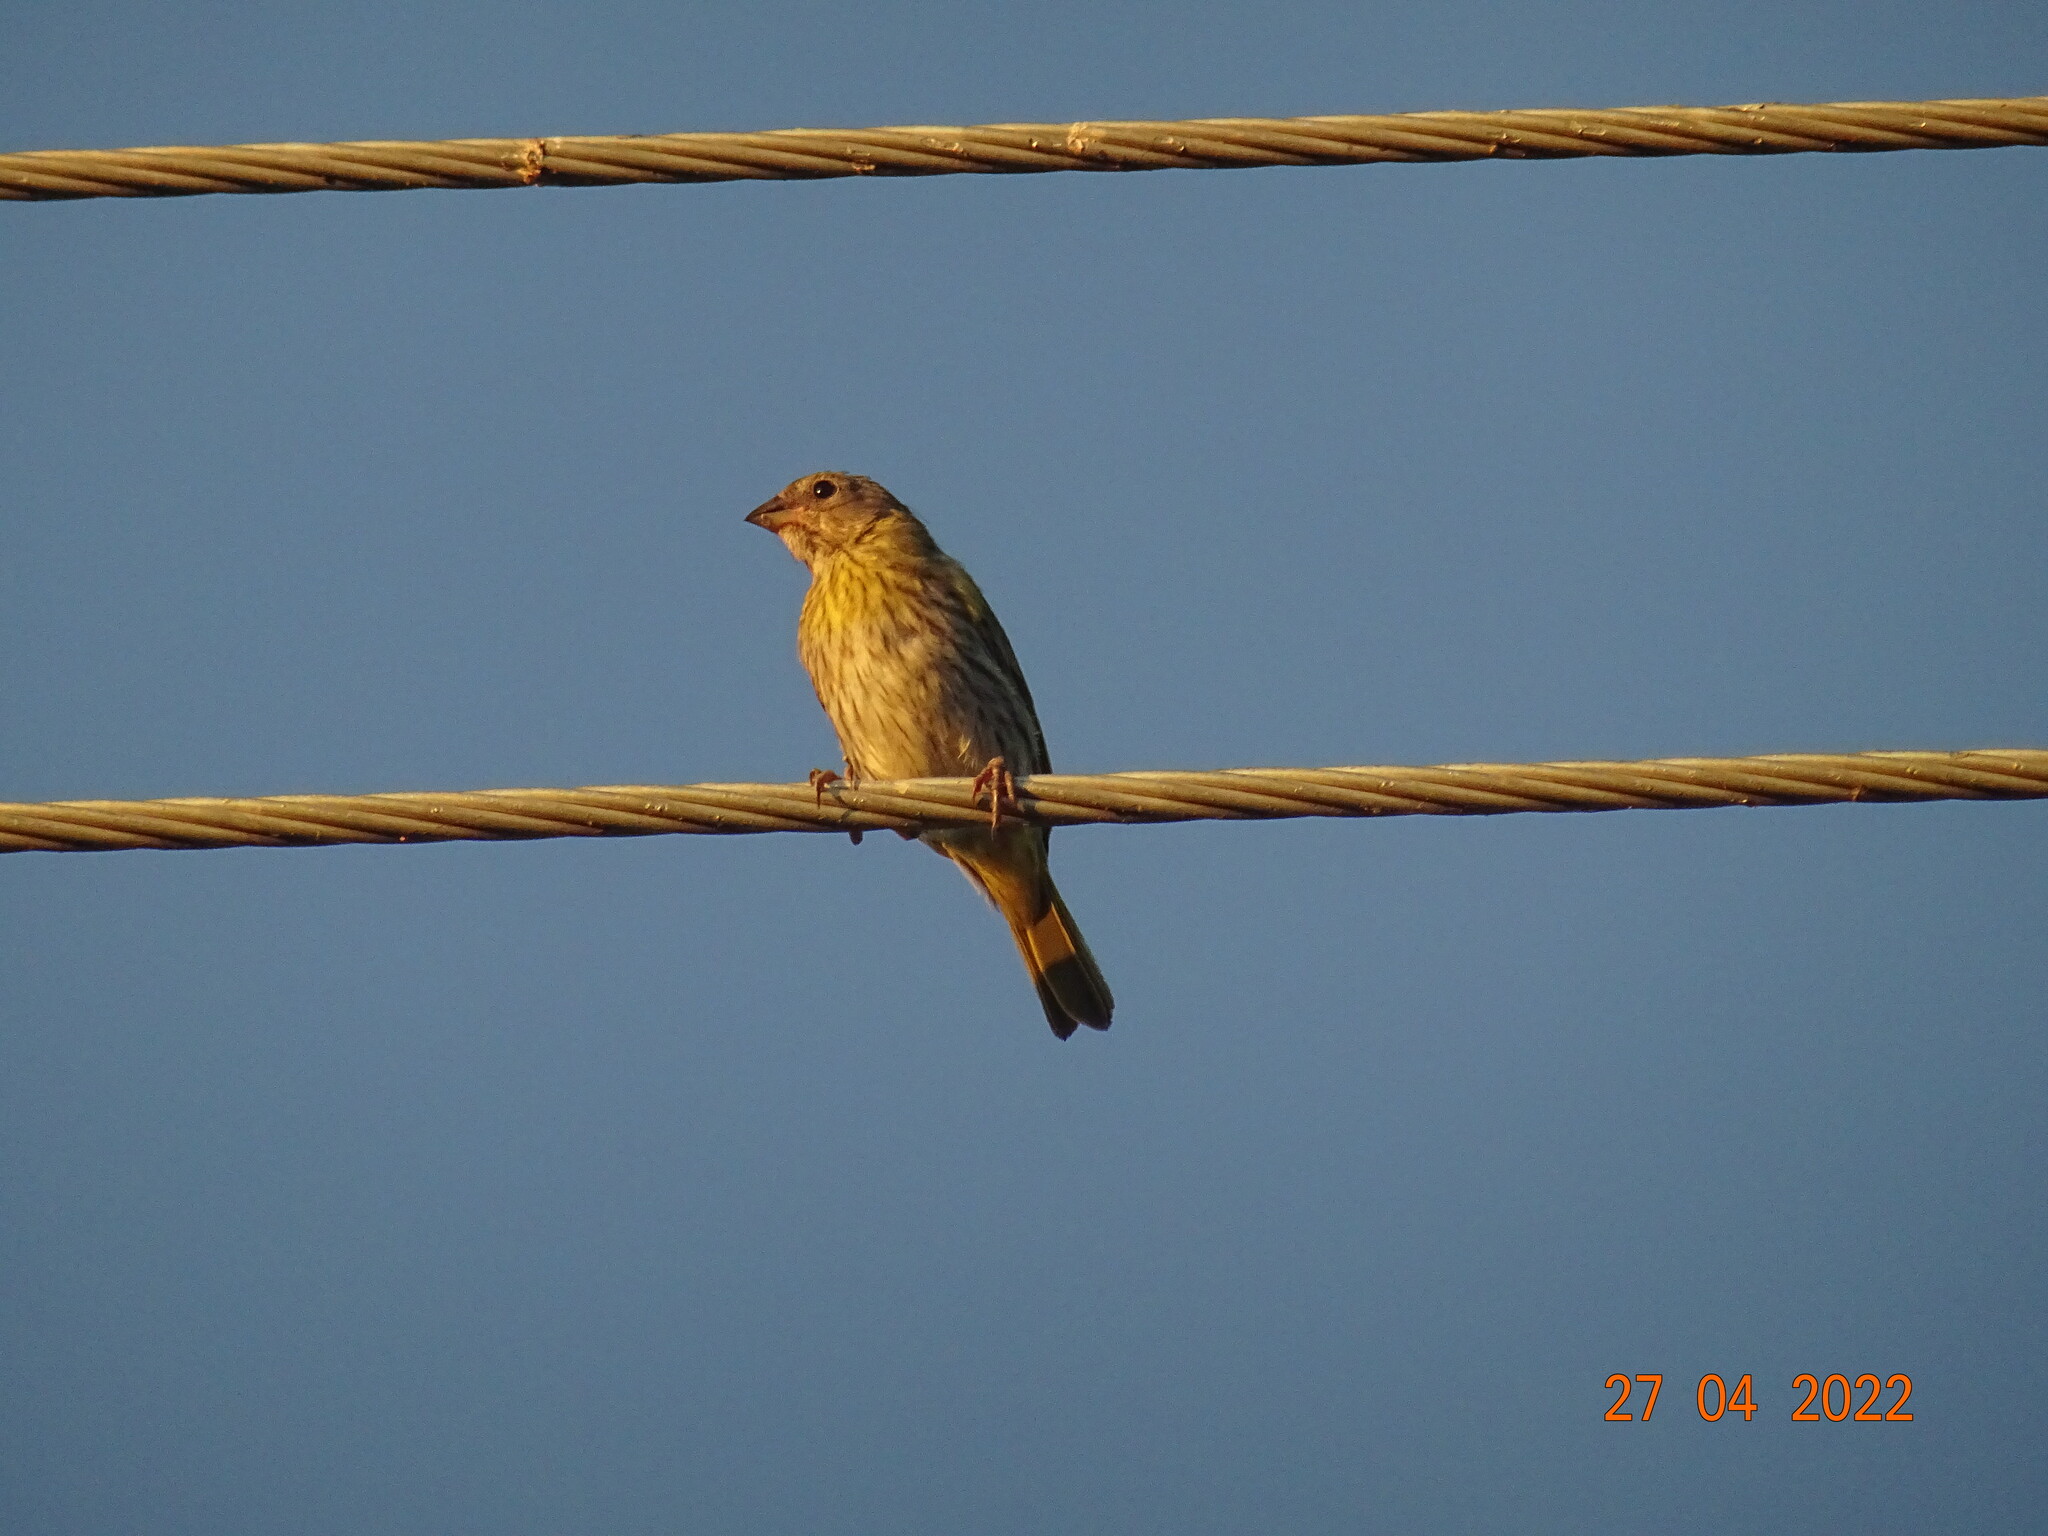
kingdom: Animalia
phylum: Chordata
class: Aves
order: Passeriformes
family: Thraupidae
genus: Sicalis
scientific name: Sicalis flaveola
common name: Saffron finch
